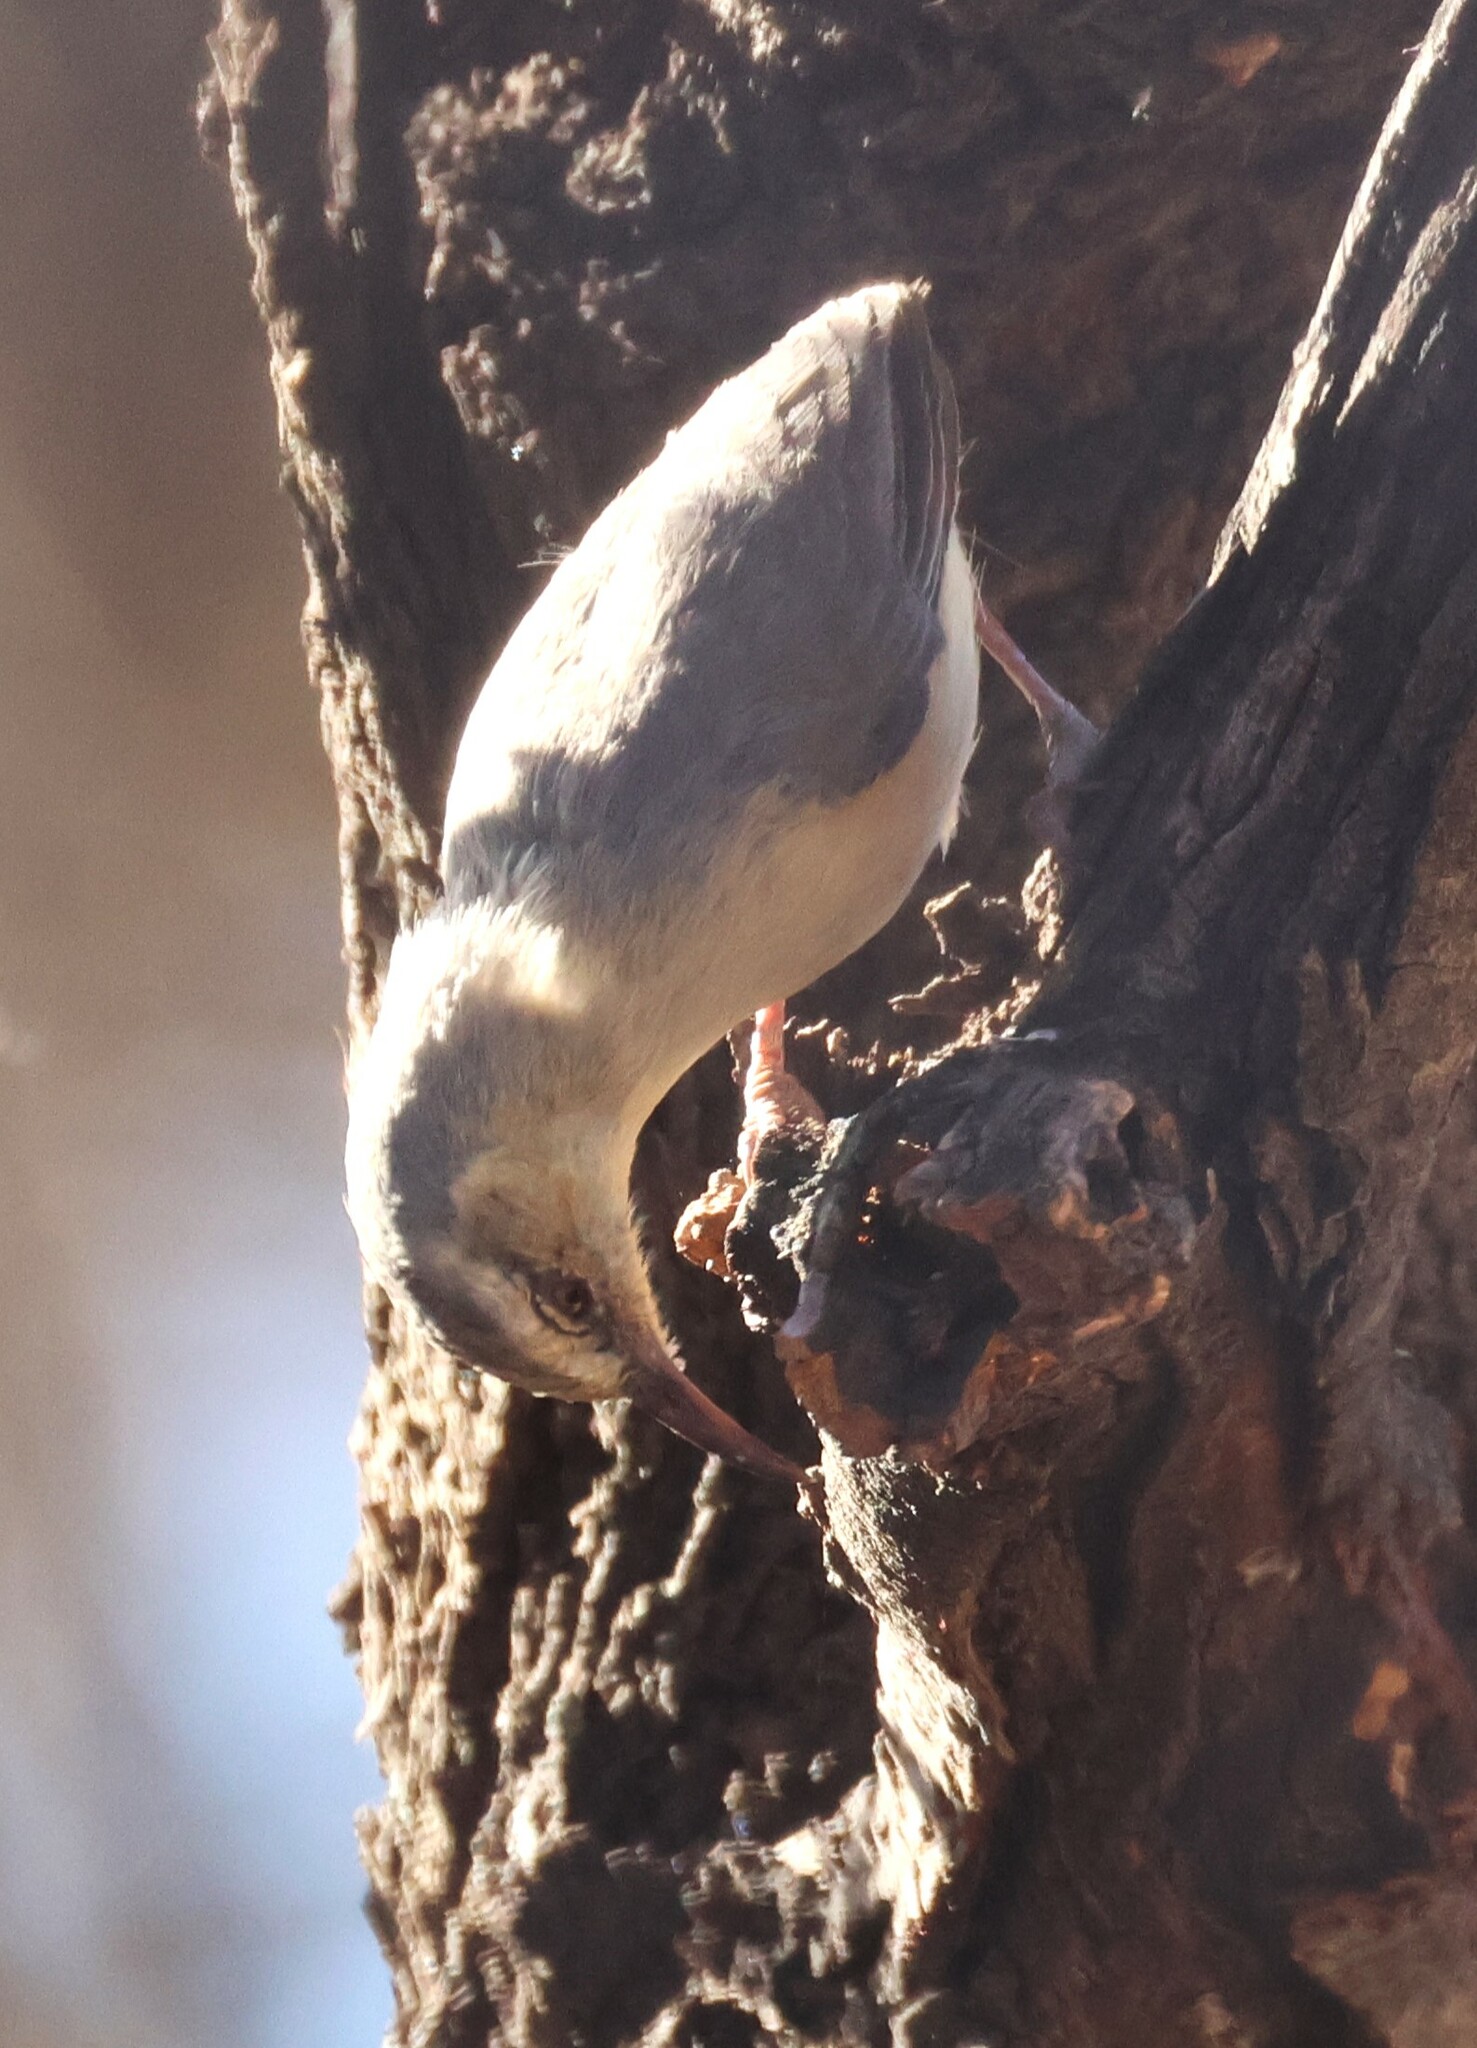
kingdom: Animalia
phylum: Chordata
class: Aves
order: Passeriformes
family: Macrosphenidae
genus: Sylvietta
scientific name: Sylvietta rufescens
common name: Long-billed crombec
